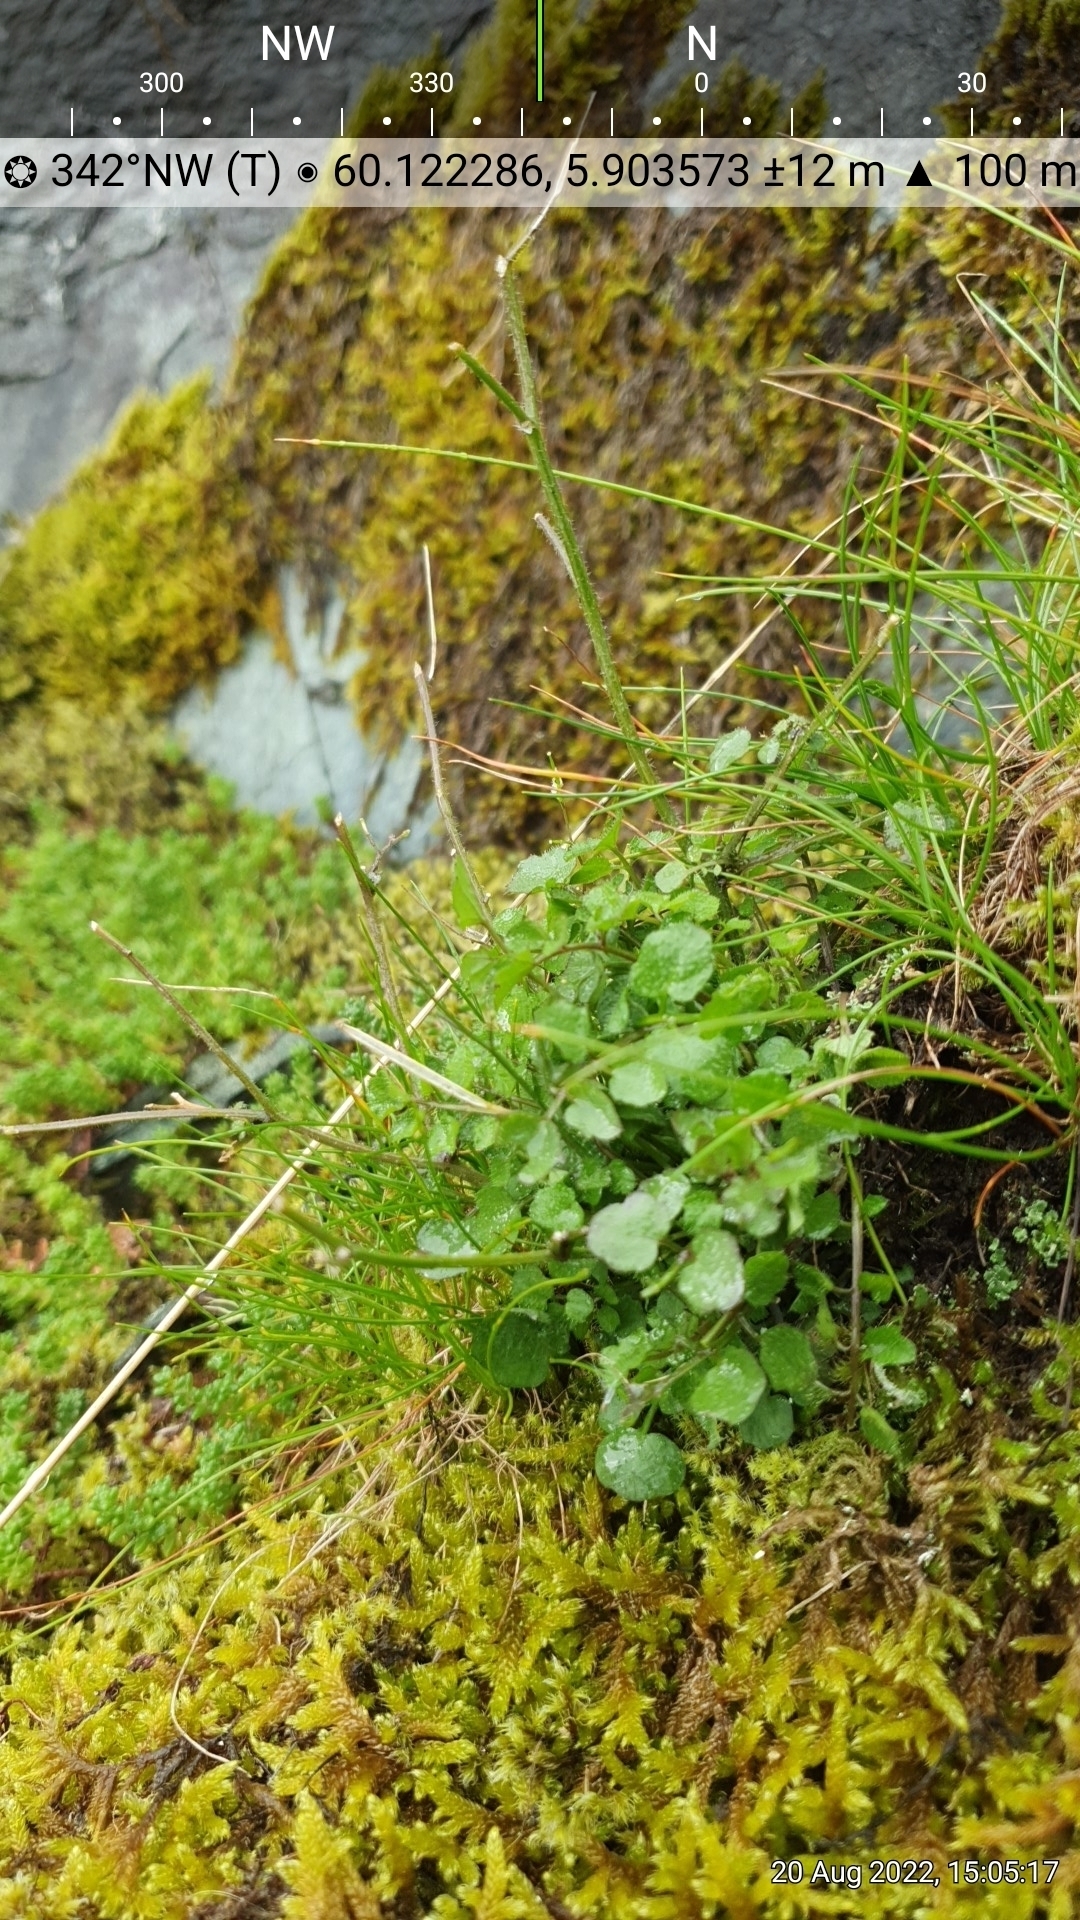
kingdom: Plantae
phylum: Tracheophyta
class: Magnoliopsida
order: Brassicales
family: Brassicaceae
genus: Cardamine
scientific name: Cardamine hirsuta
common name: Hairy bittercress
